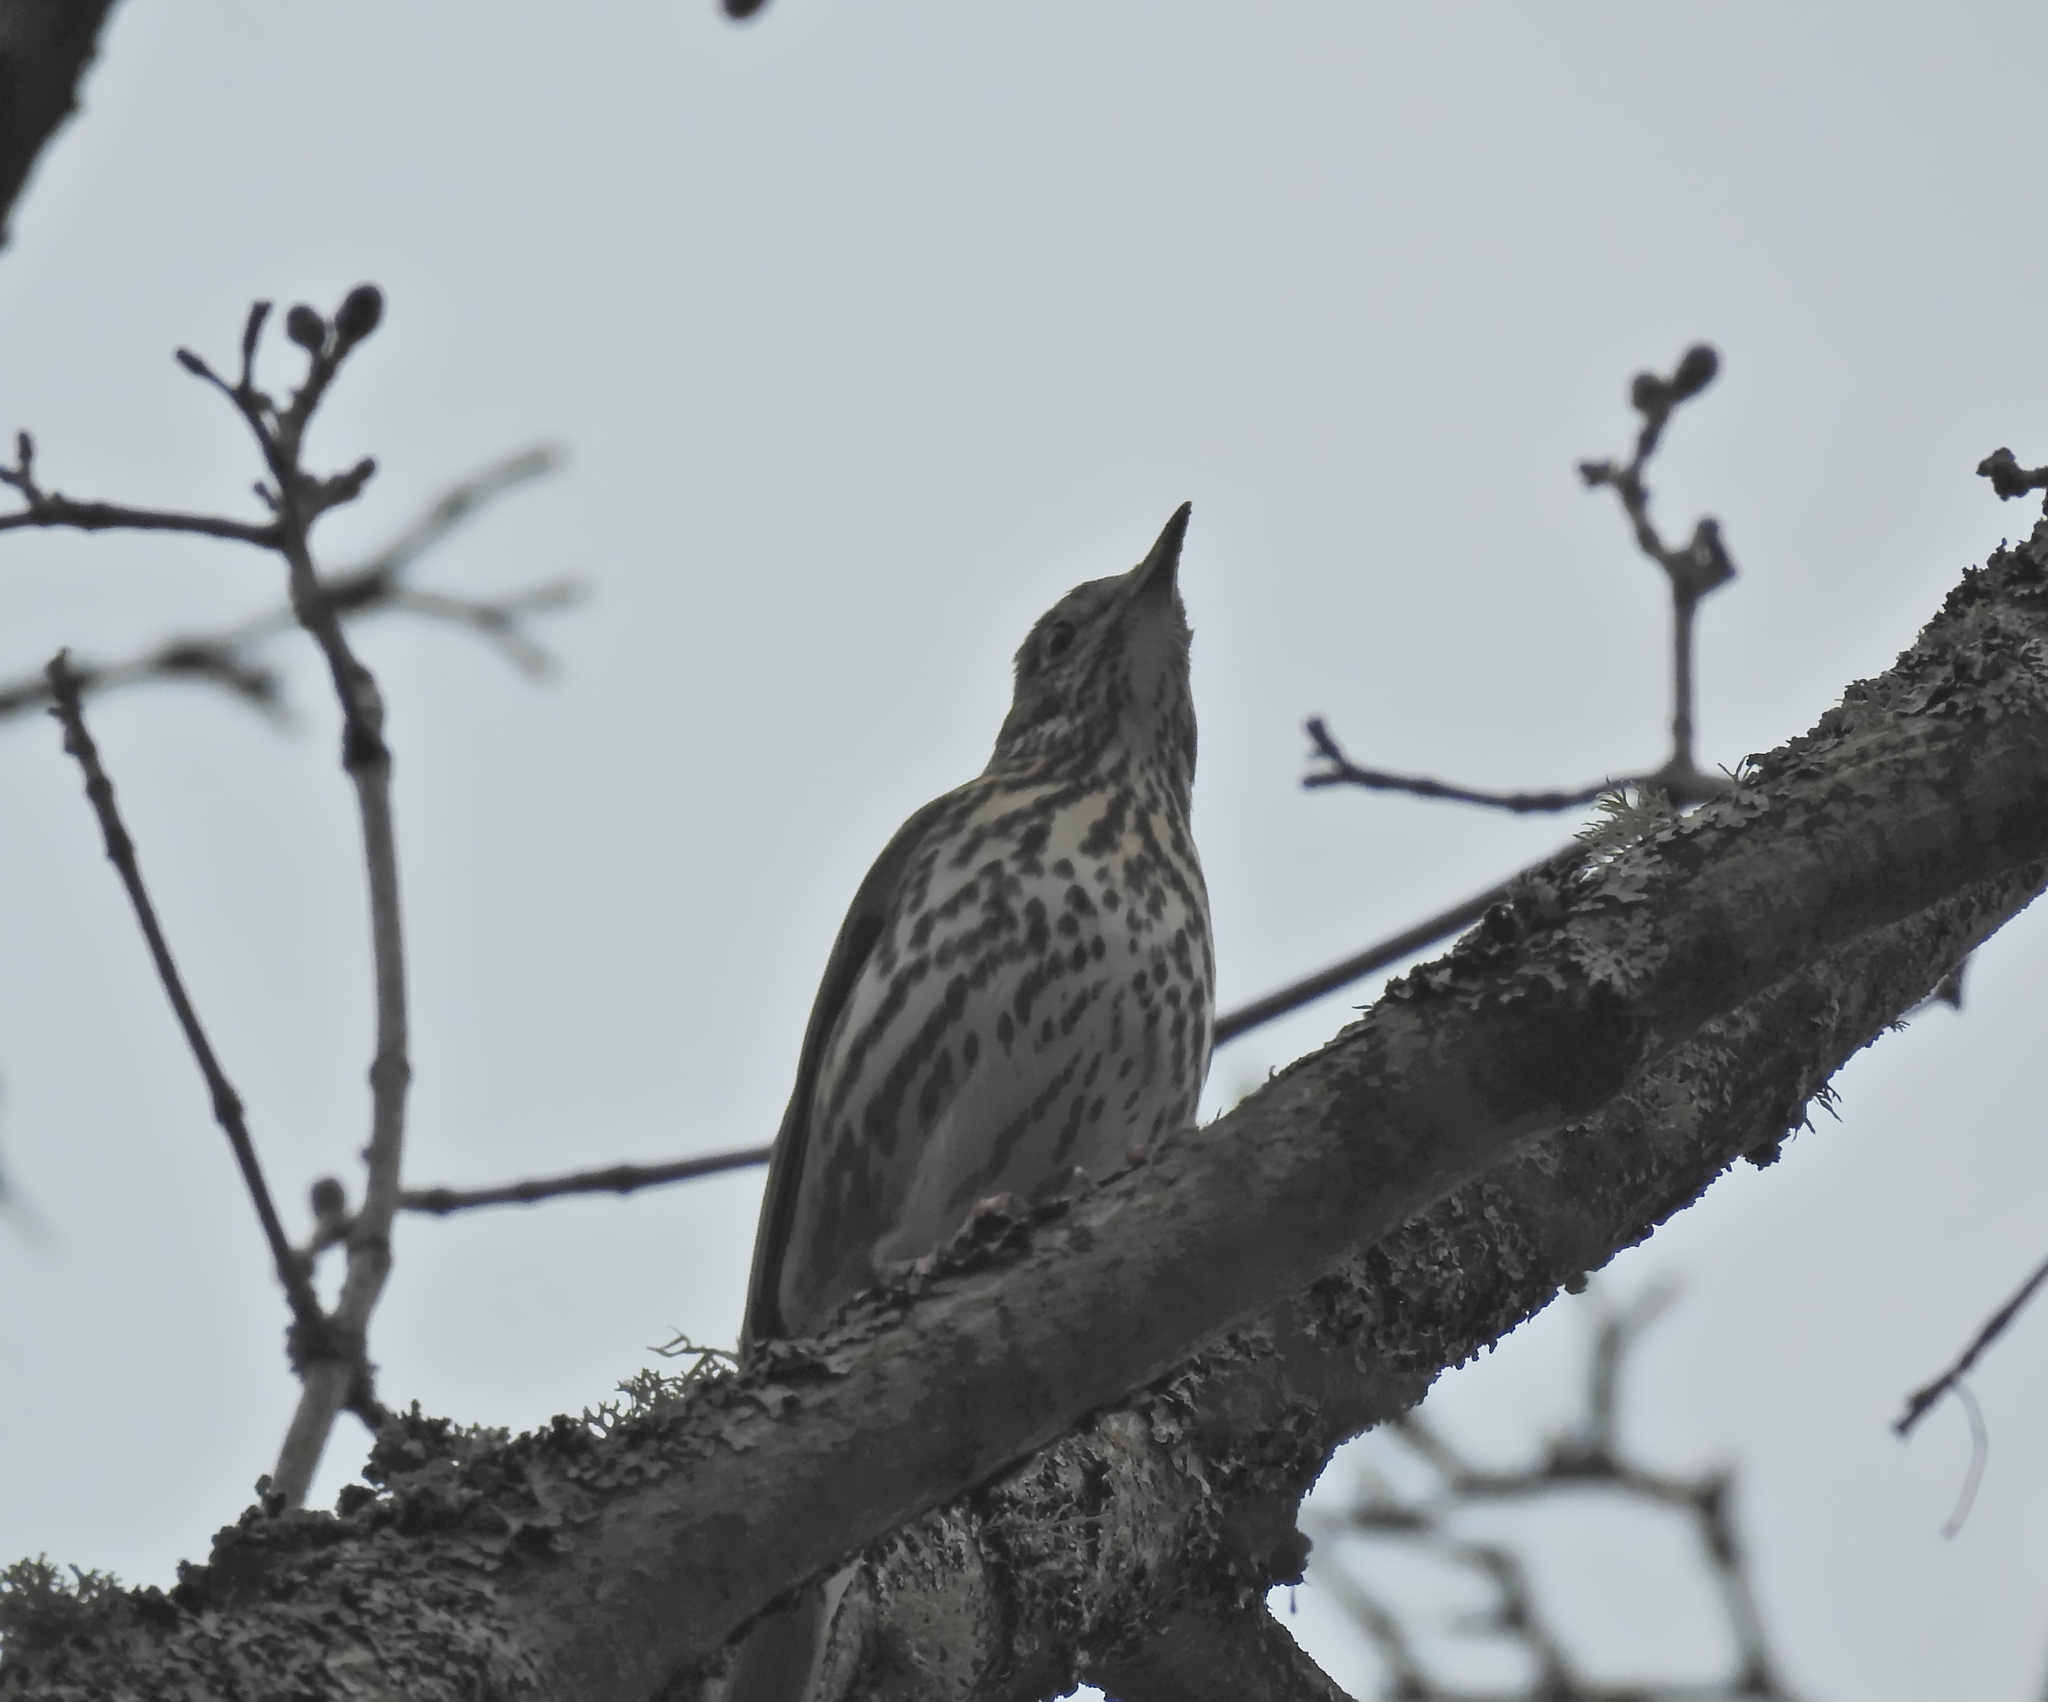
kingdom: Animalia
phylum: Chordata
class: Aves
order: Passeriformes
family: Turdidae
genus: Turdus
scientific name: Turdus philomelos
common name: Song thrush
